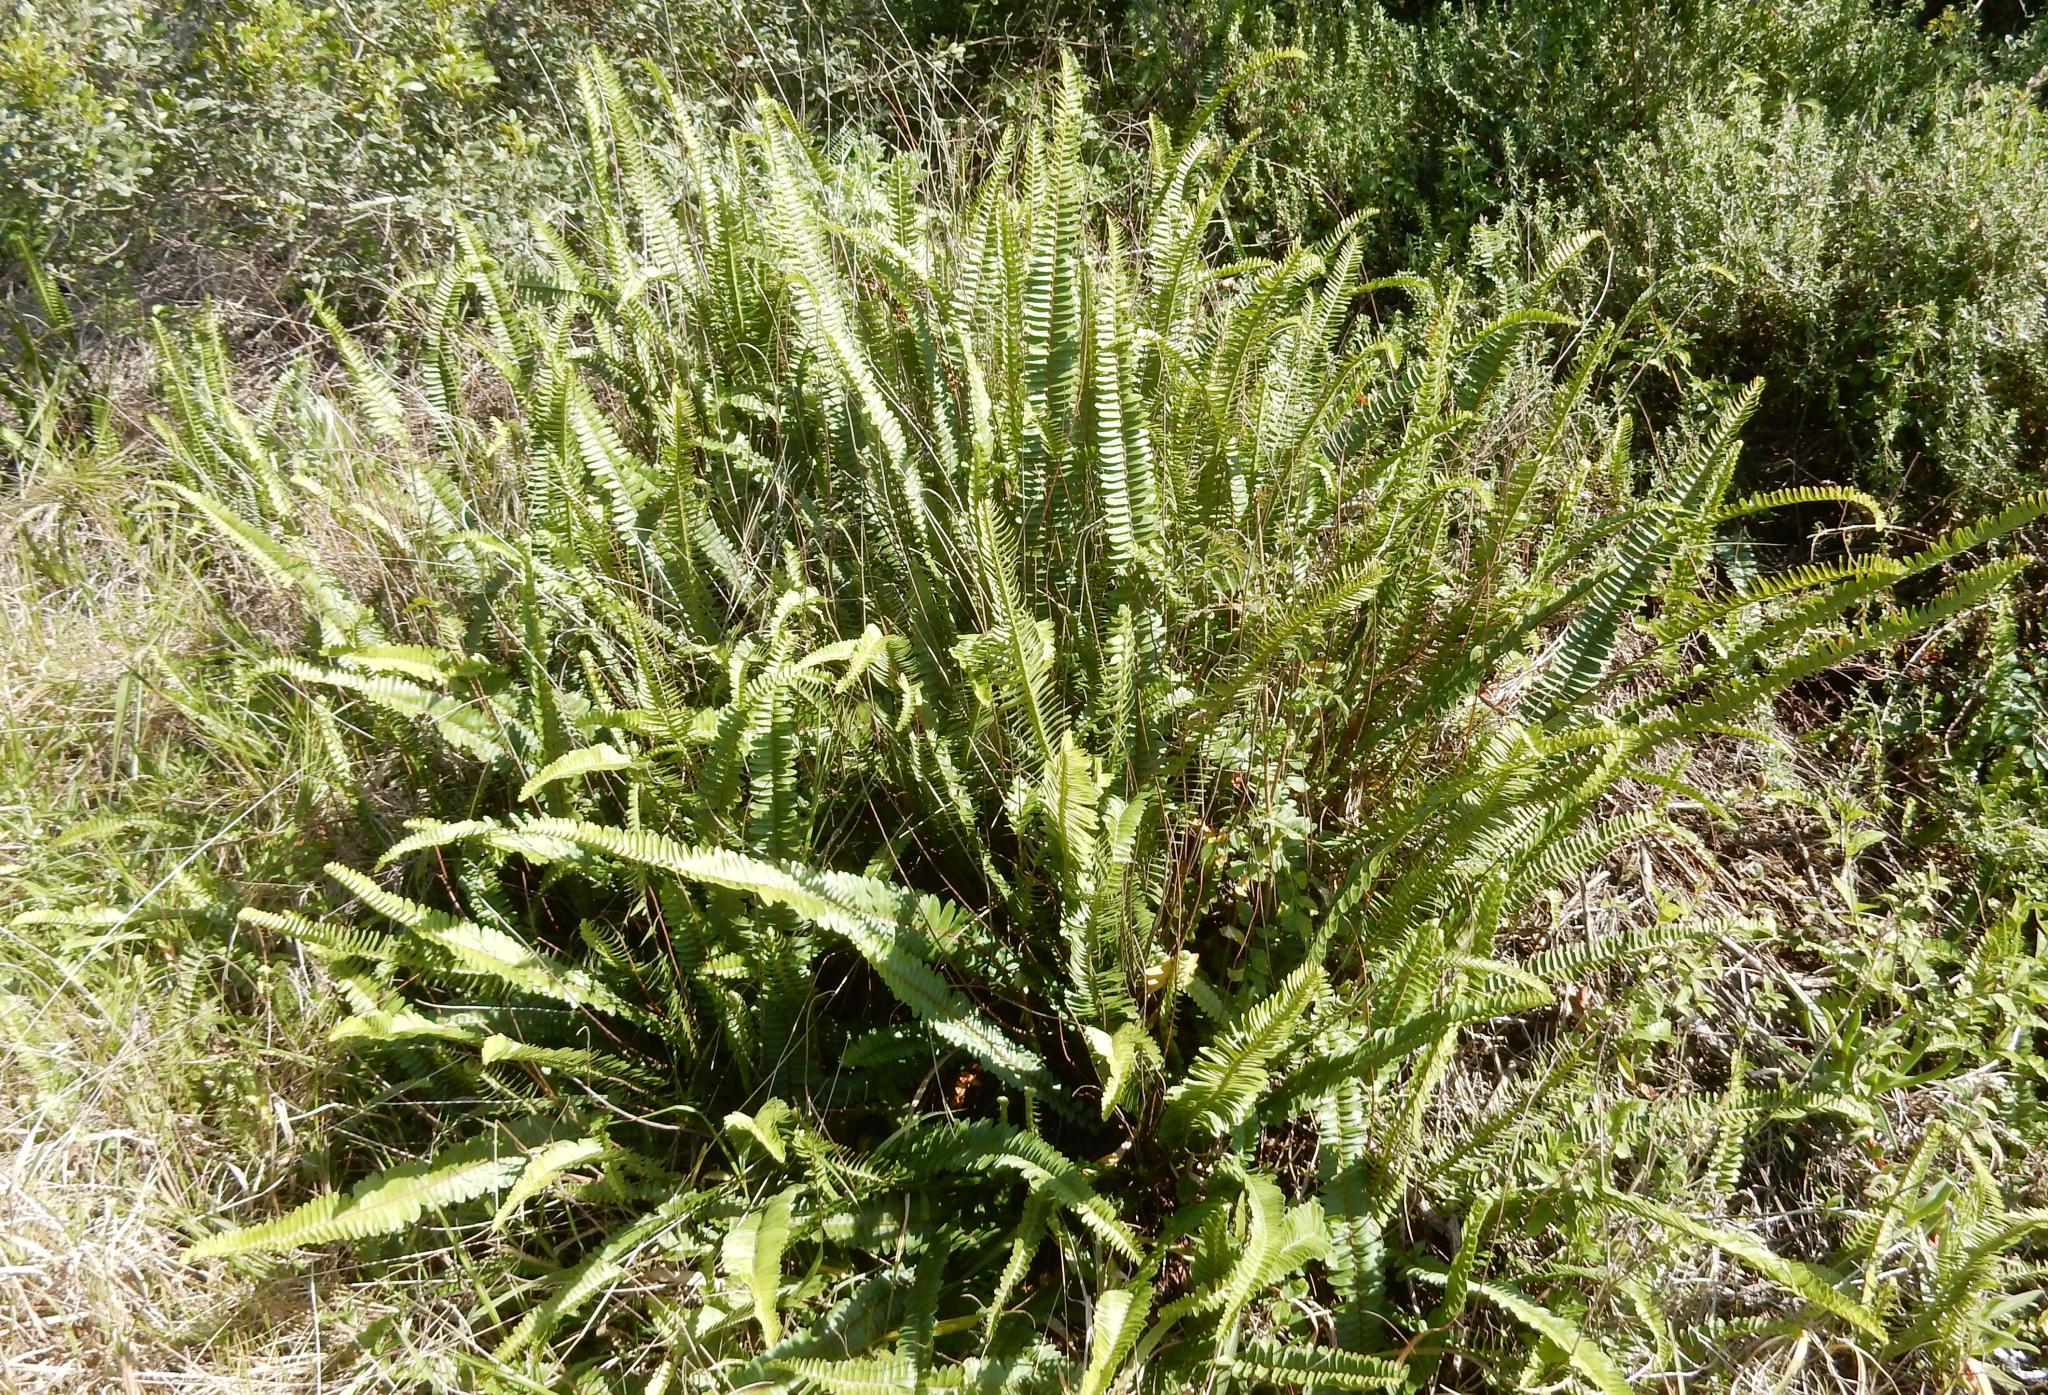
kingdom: Plantae
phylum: Tracheophyta
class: Polypodiopsida
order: Polypodiales
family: Nephrolepidaceae
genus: Nephrolepis
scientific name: Nephrolepis cordifolia
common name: Narrow swordfern
